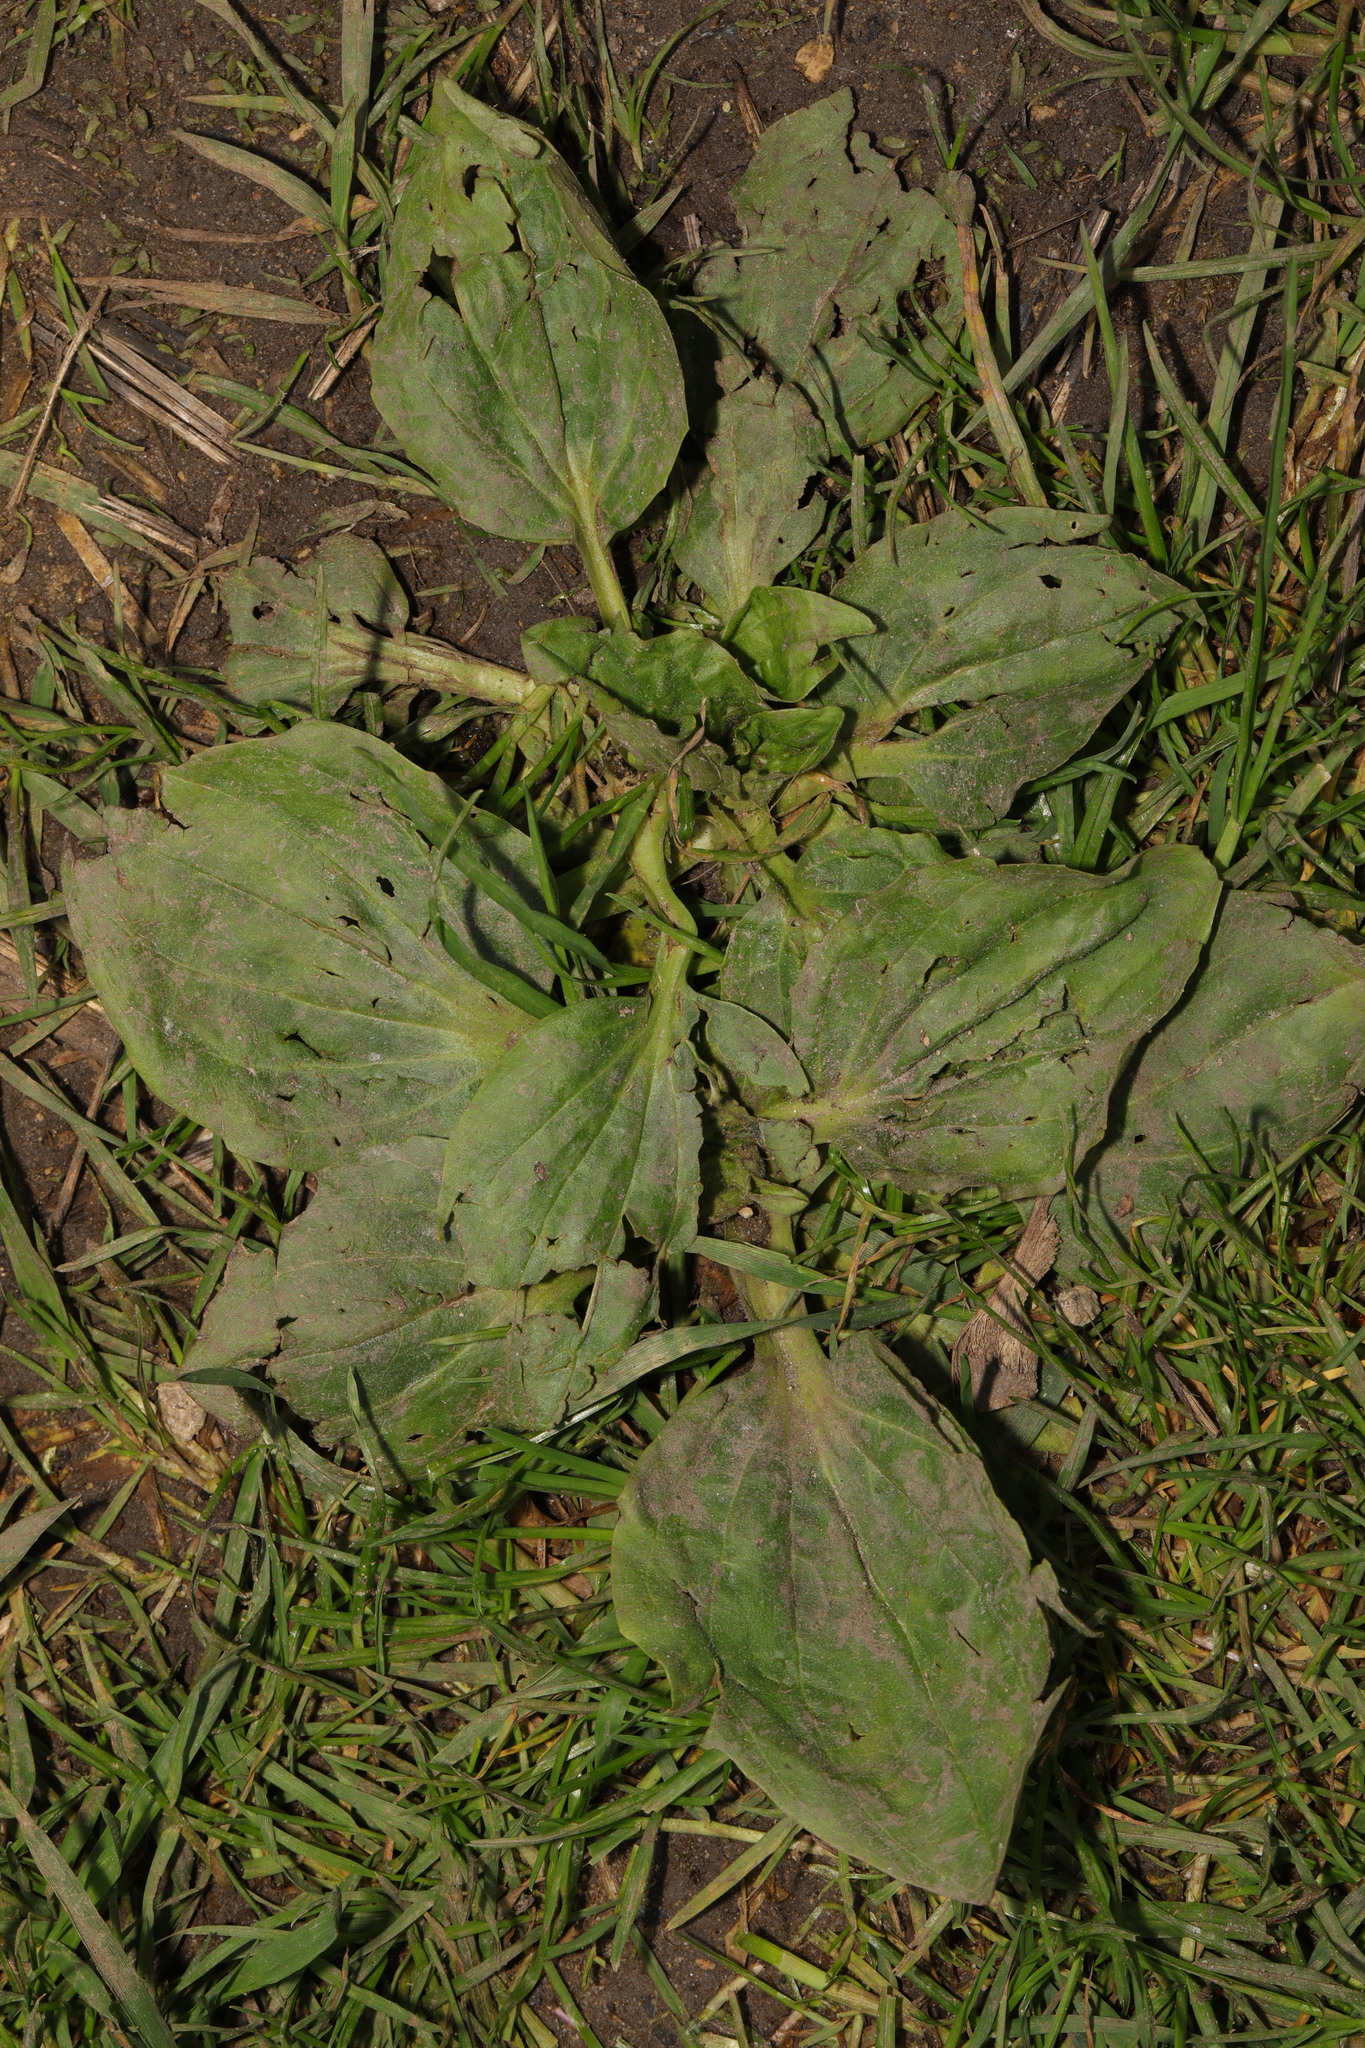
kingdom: Plantae
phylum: Tracheophyta
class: Magnoliopsida
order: Lamiales
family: Plantaginaceae
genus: Plantago
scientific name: Plantago major
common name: Common plantain
